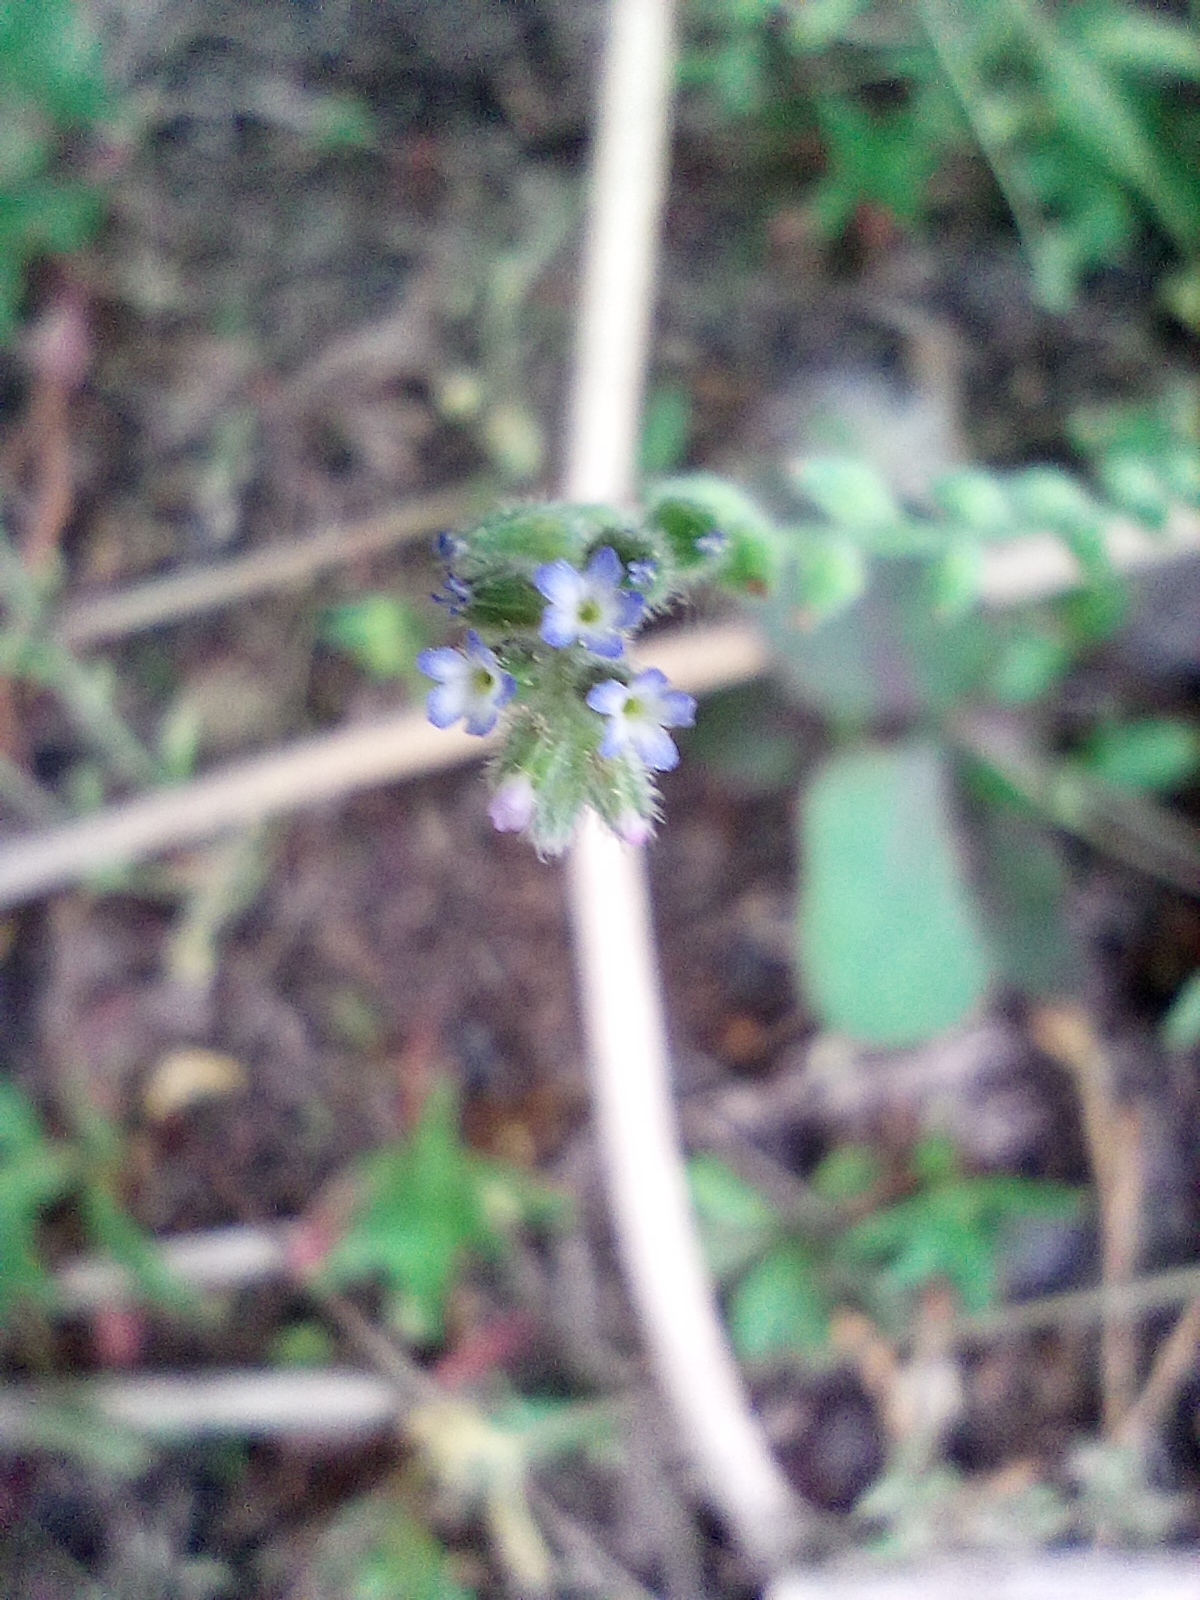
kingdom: Plantae
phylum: Tracheophyta
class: Magnoliopsida
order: Boraginales
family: Boraginaceae
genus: Myosotis
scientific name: Myosotis stricta
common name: Strict forget-me-not
